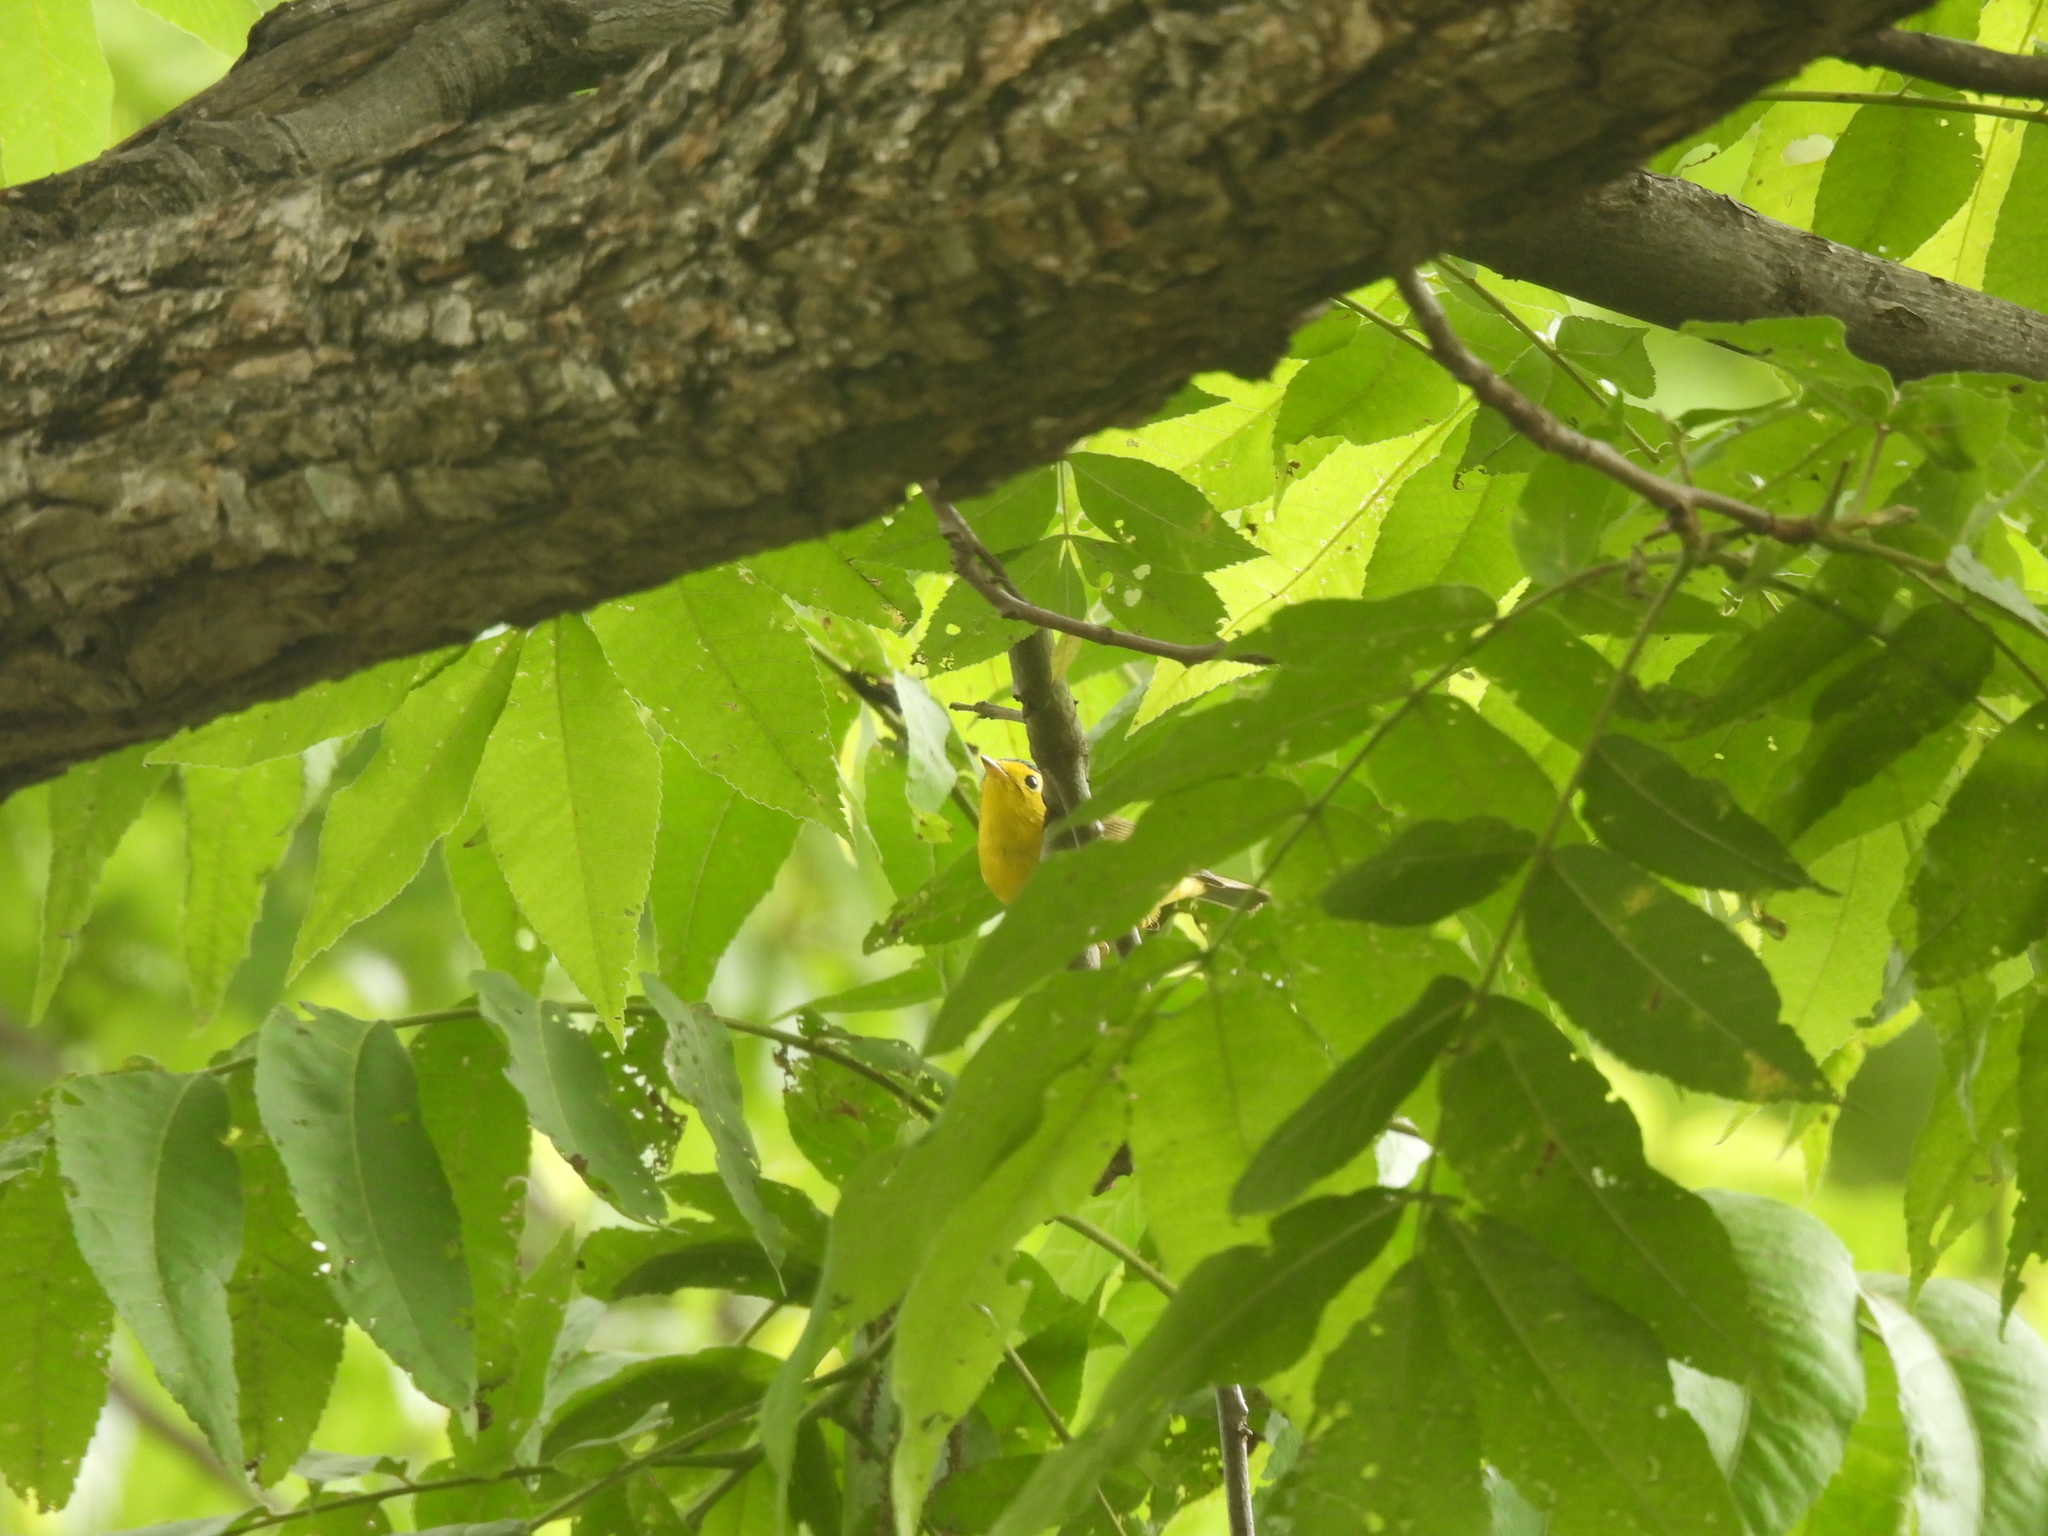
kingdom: Animalia
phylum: Chordata
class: Aves
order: Passeriformes
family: Parulidae
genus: Cardellina
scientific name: Cardellina pusilla
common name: Wilson's warbler
